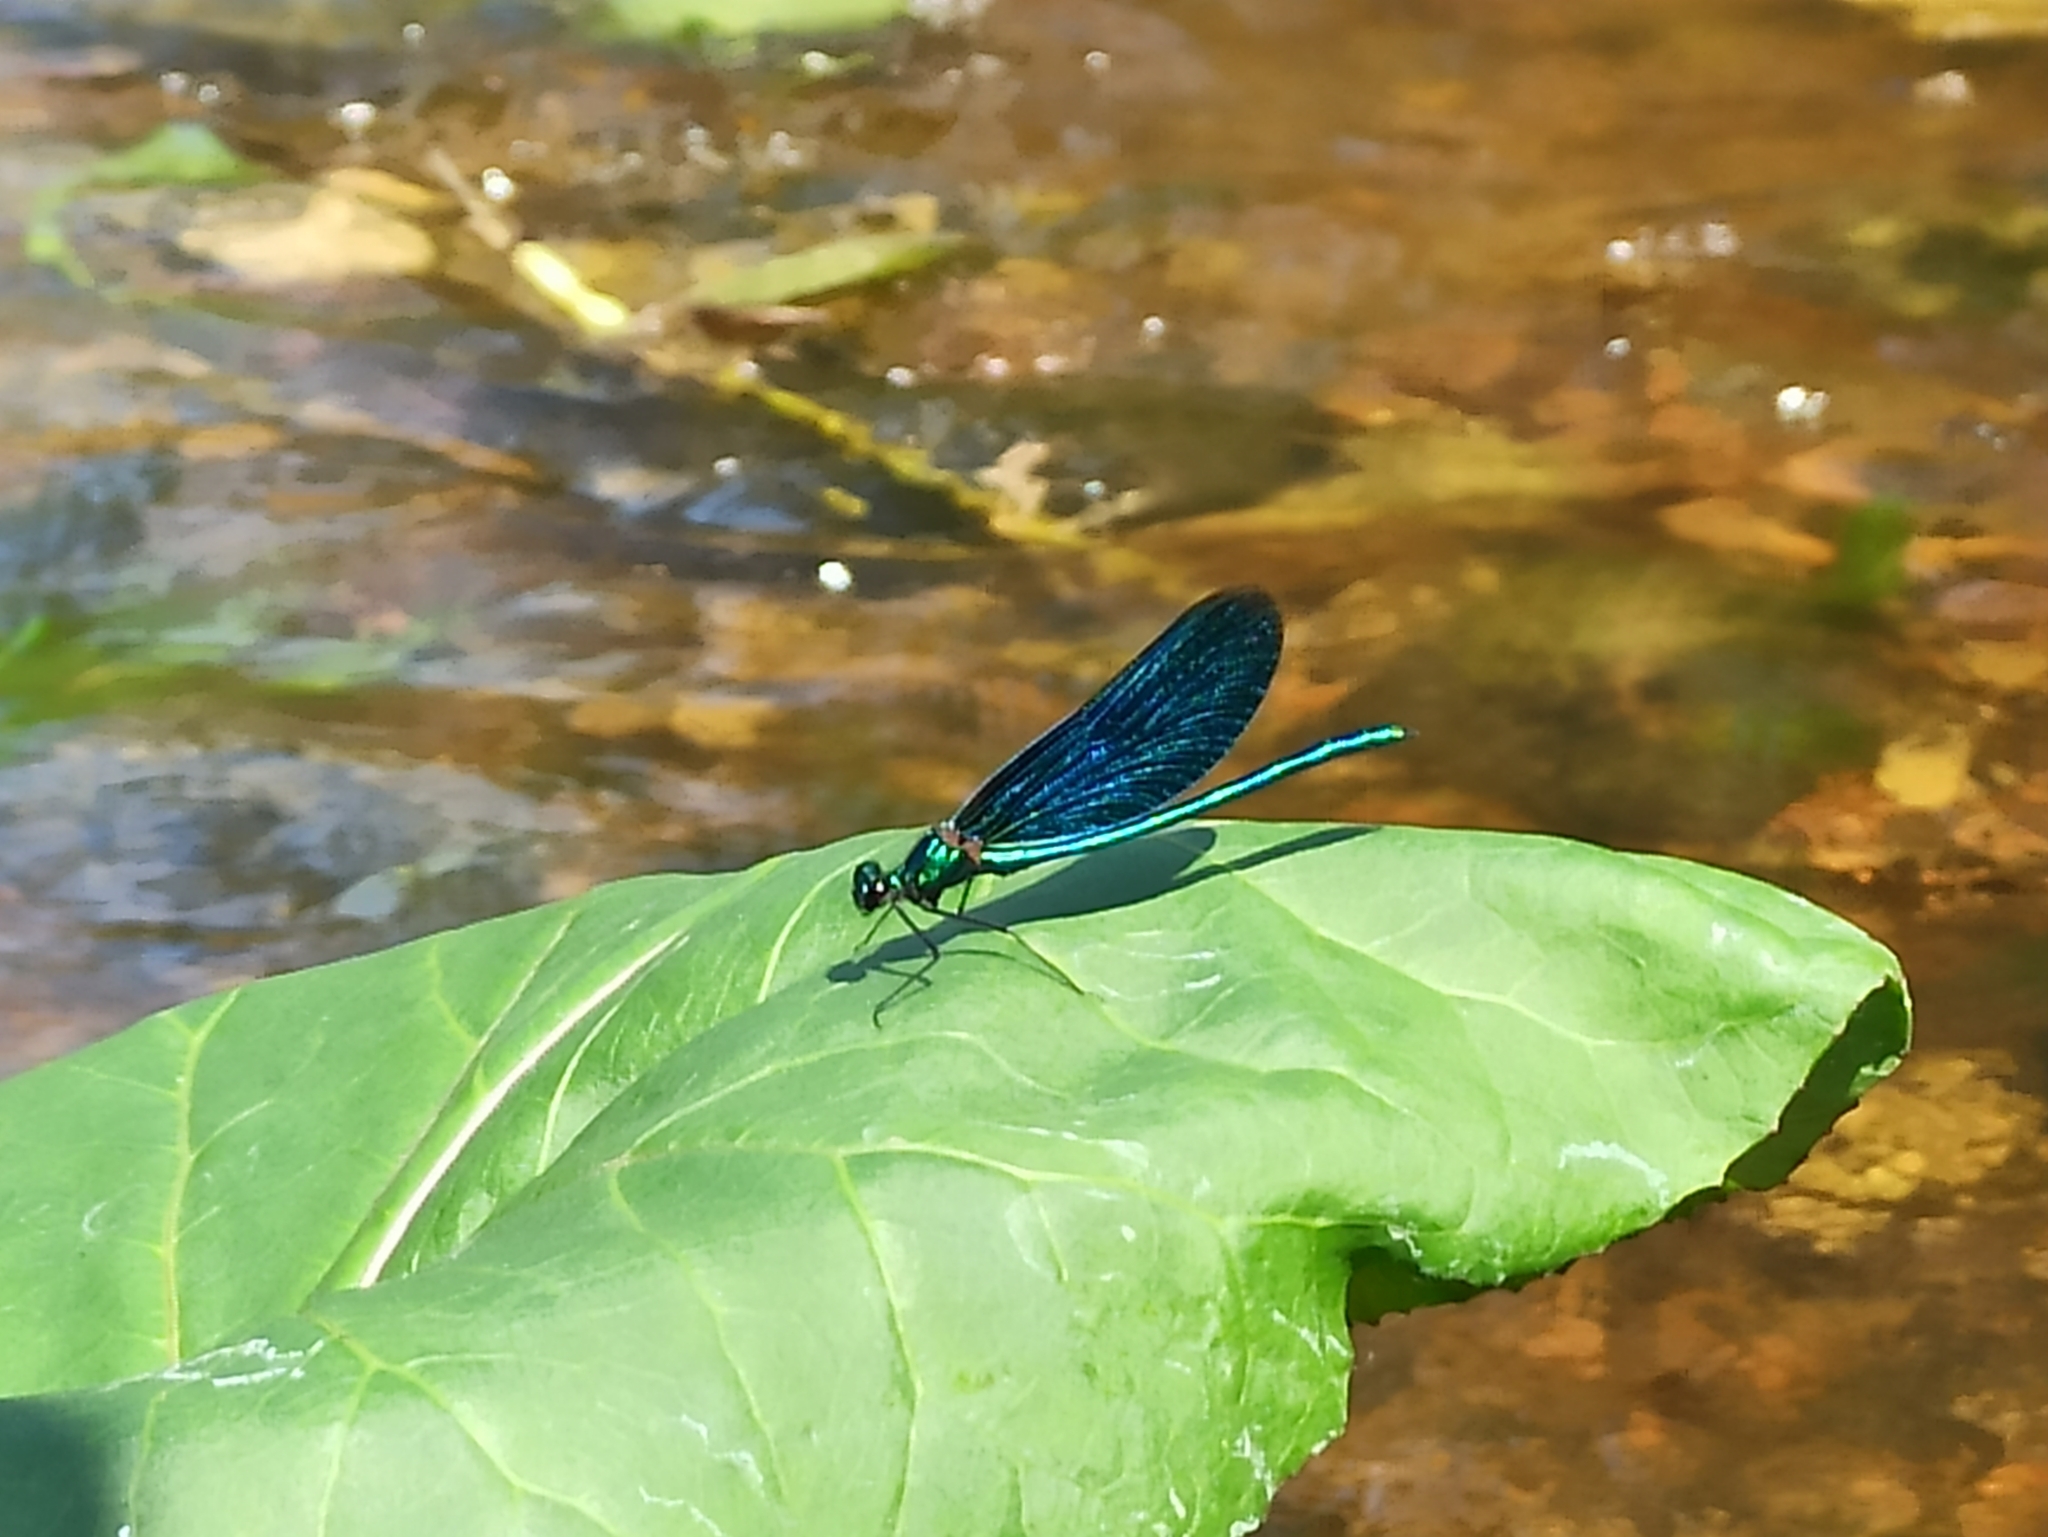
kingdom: Animalia
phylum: Arthropoda
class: Insecta
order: Odonata
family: Calopterygidae
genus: Calopteryx
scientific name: Calopteryx virgo
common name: Beautiful demoiselle
